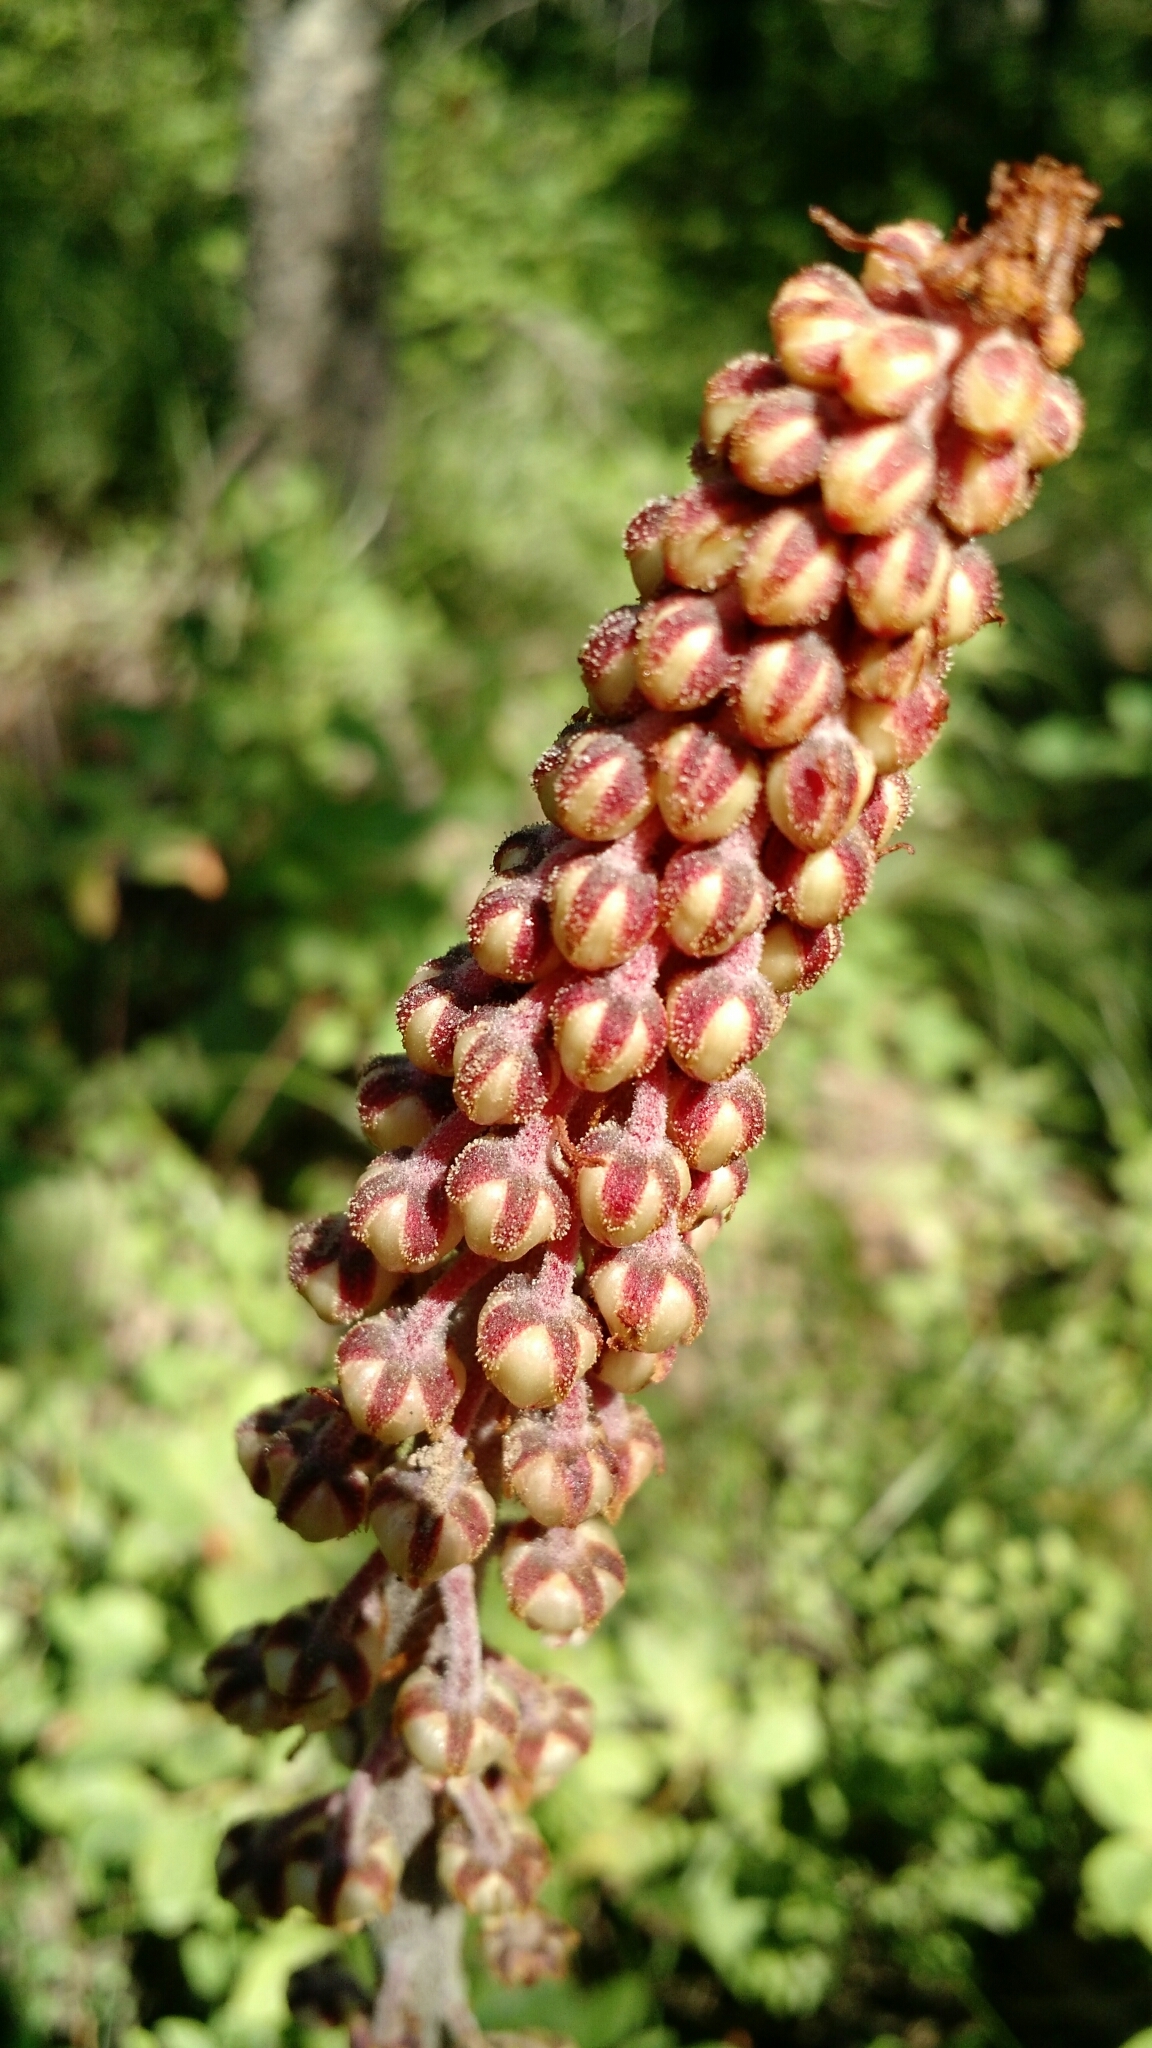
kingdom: Plantae
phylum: Tracheophyta
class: Magnoliopsida
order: Ericales
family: Ericaceae
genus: Pterospora
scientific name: Pterospora andromedea
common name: Giant bird's-nest
